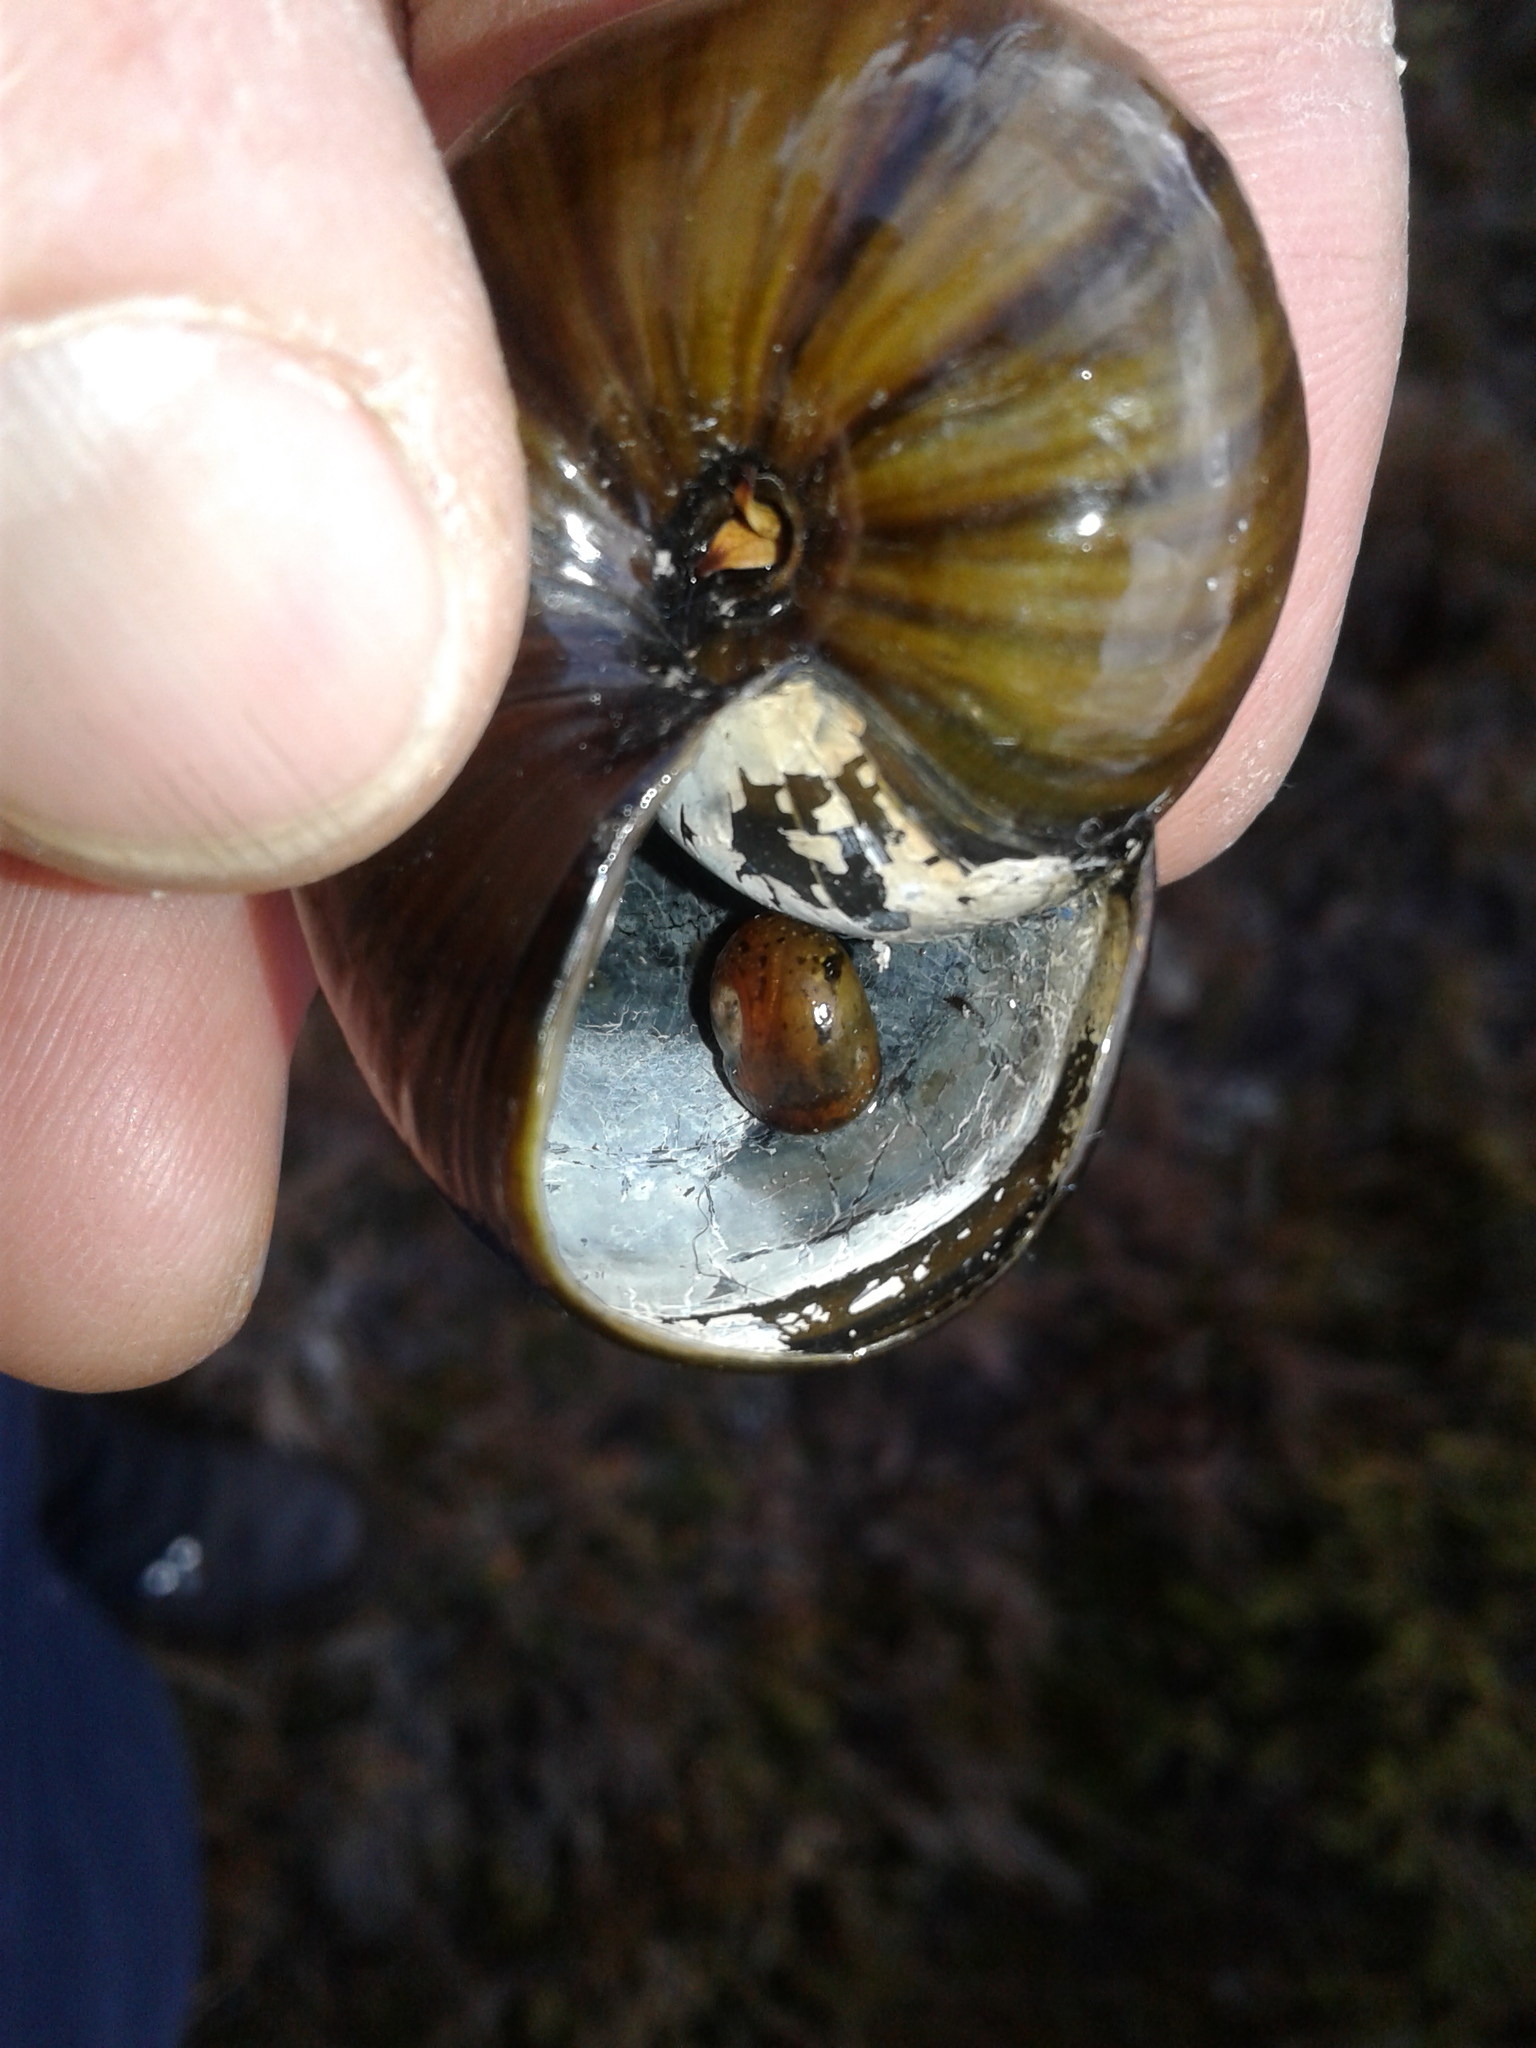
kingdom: Animalia
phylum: Mollusca
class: Gastropoda
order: Stylommatophora
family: Rhytididae
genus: Powelliphanta
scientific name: Powelliphanta patrickensis
